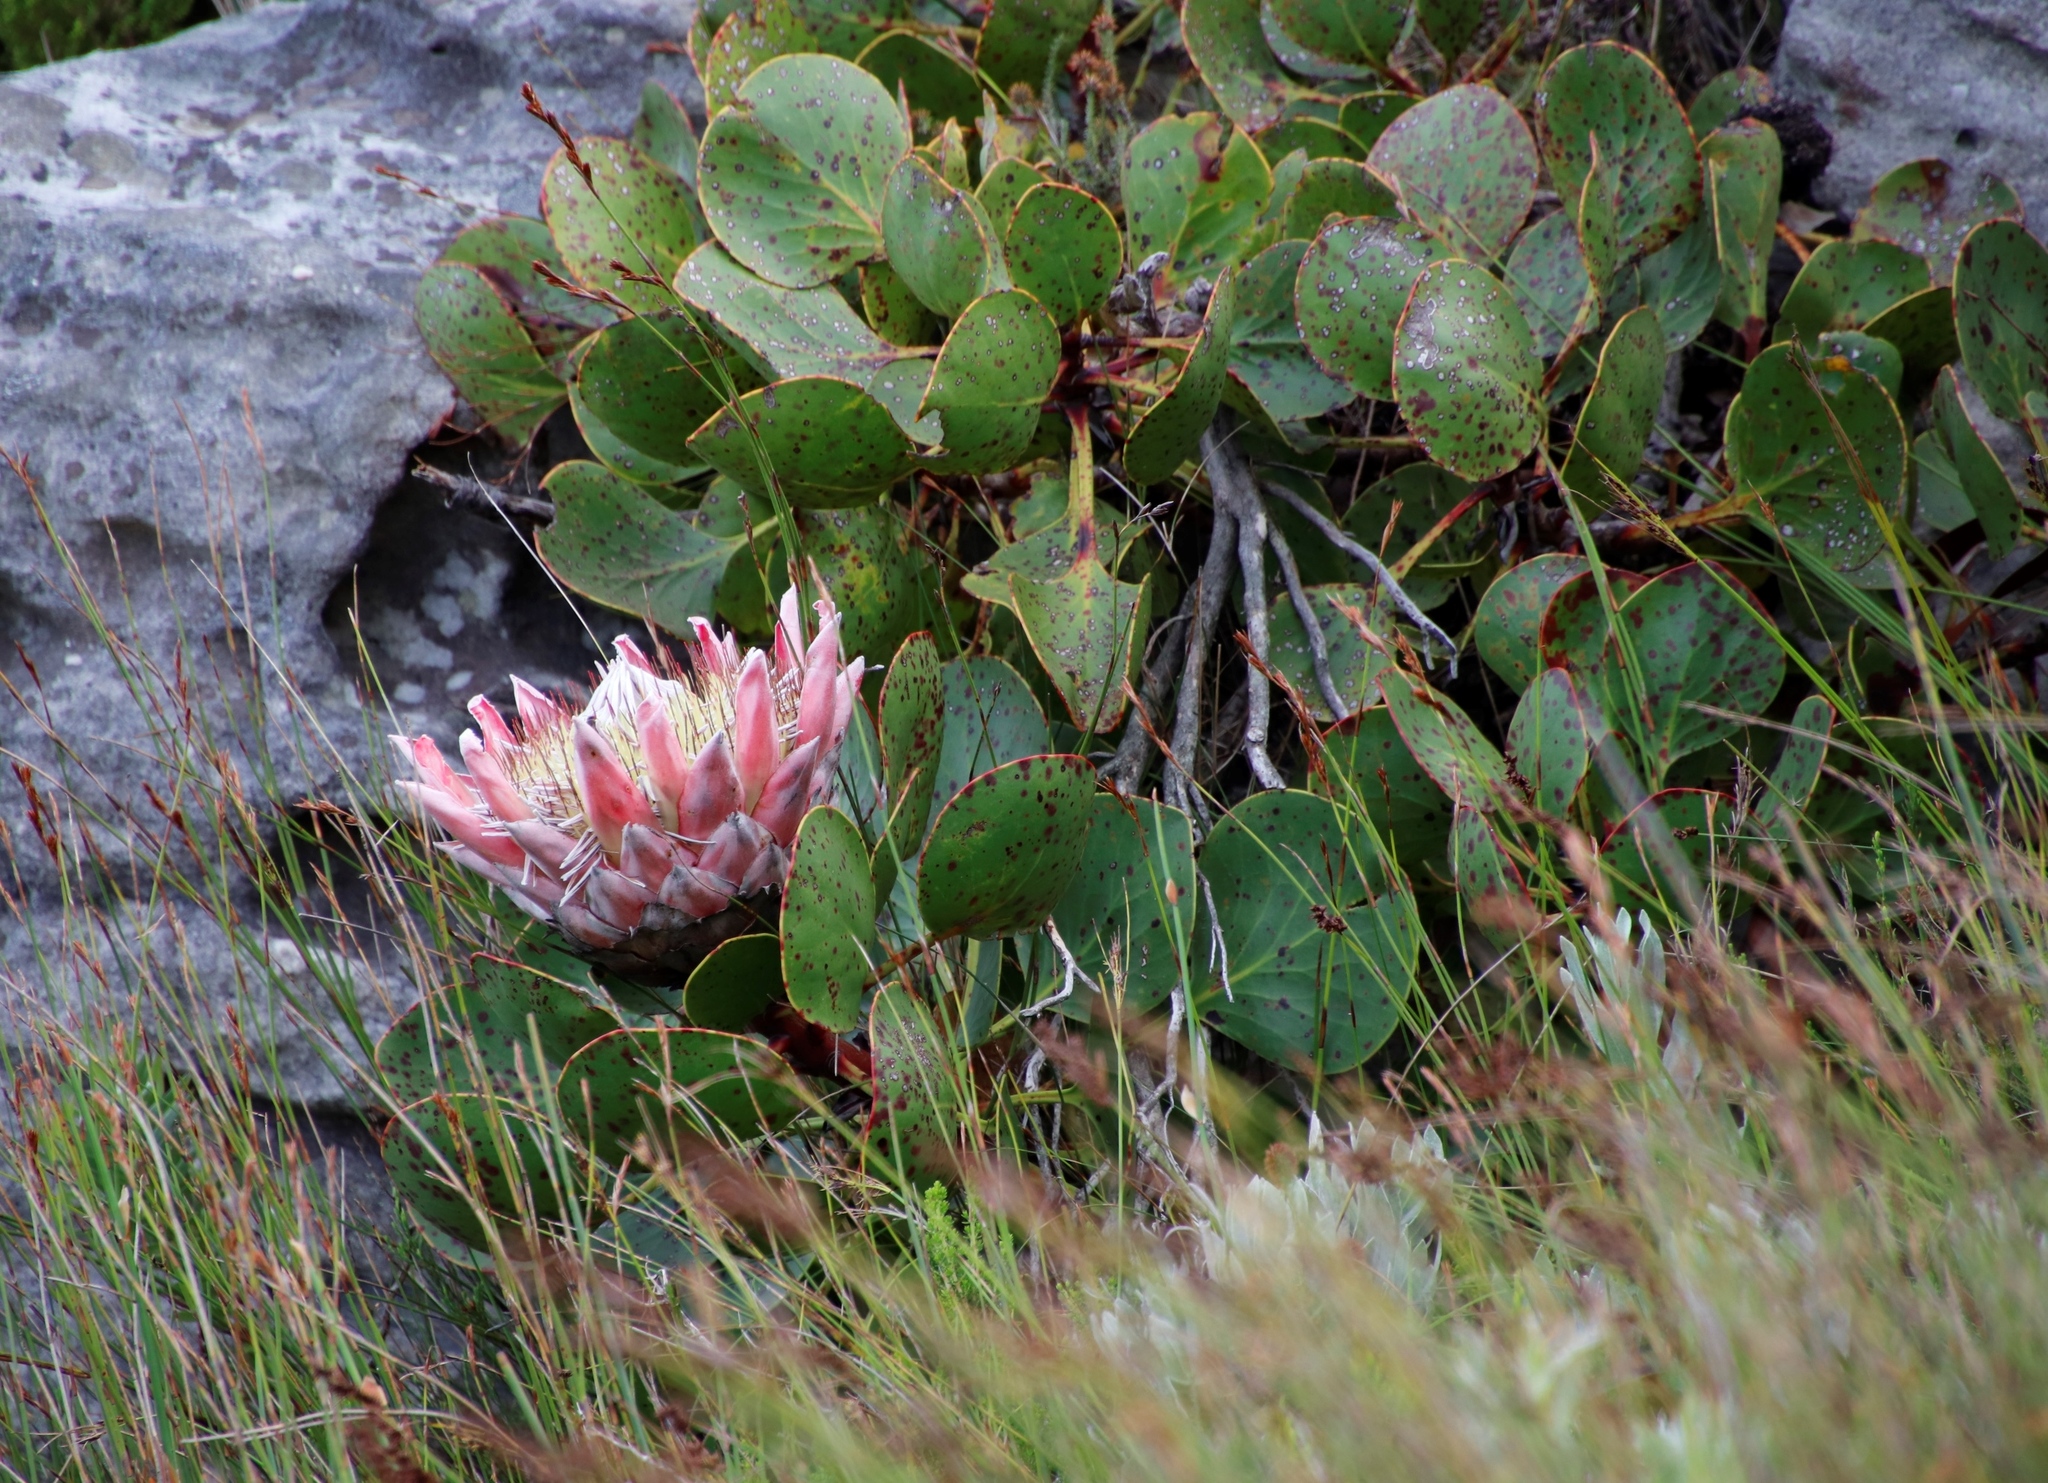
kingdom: Plantae
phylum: Tracheophyta
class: Magnoliopsida
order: Proteales
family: Proteaceae
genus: Protea
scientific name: Protea cynaroides
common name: King protea
